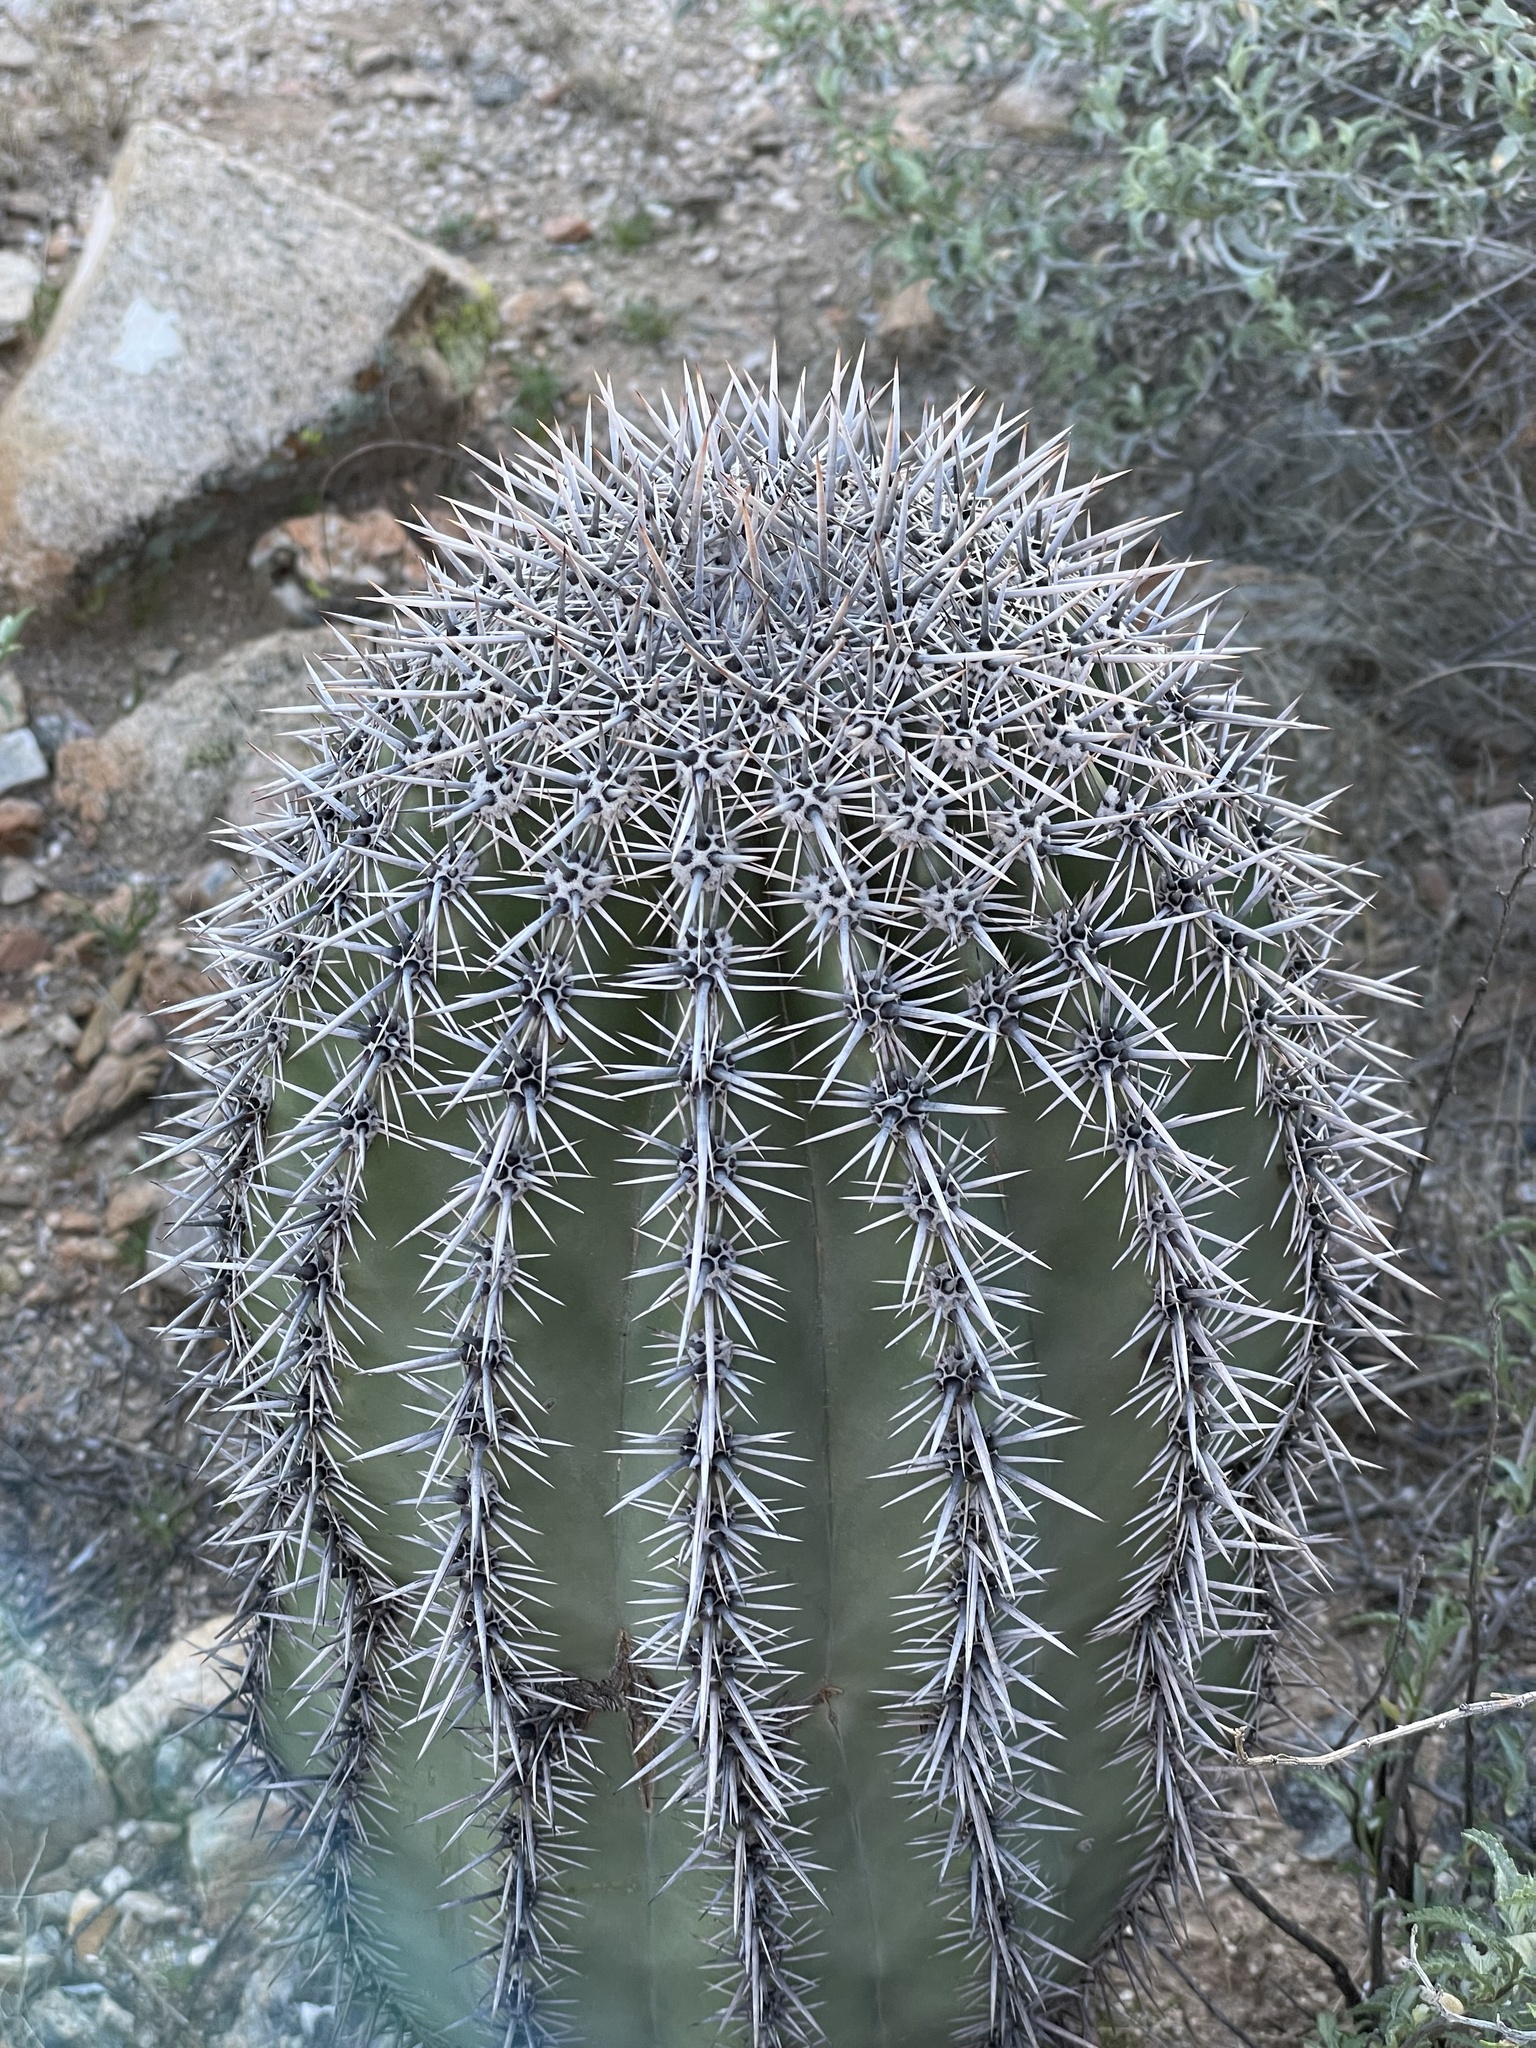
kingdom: Plantae
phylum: Tracheophyta
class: Magnoliopsida
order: Caryophyllales
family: Cactaceae
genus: Carnegiea
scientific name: Carnegiea gigantea
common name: Saguaro
